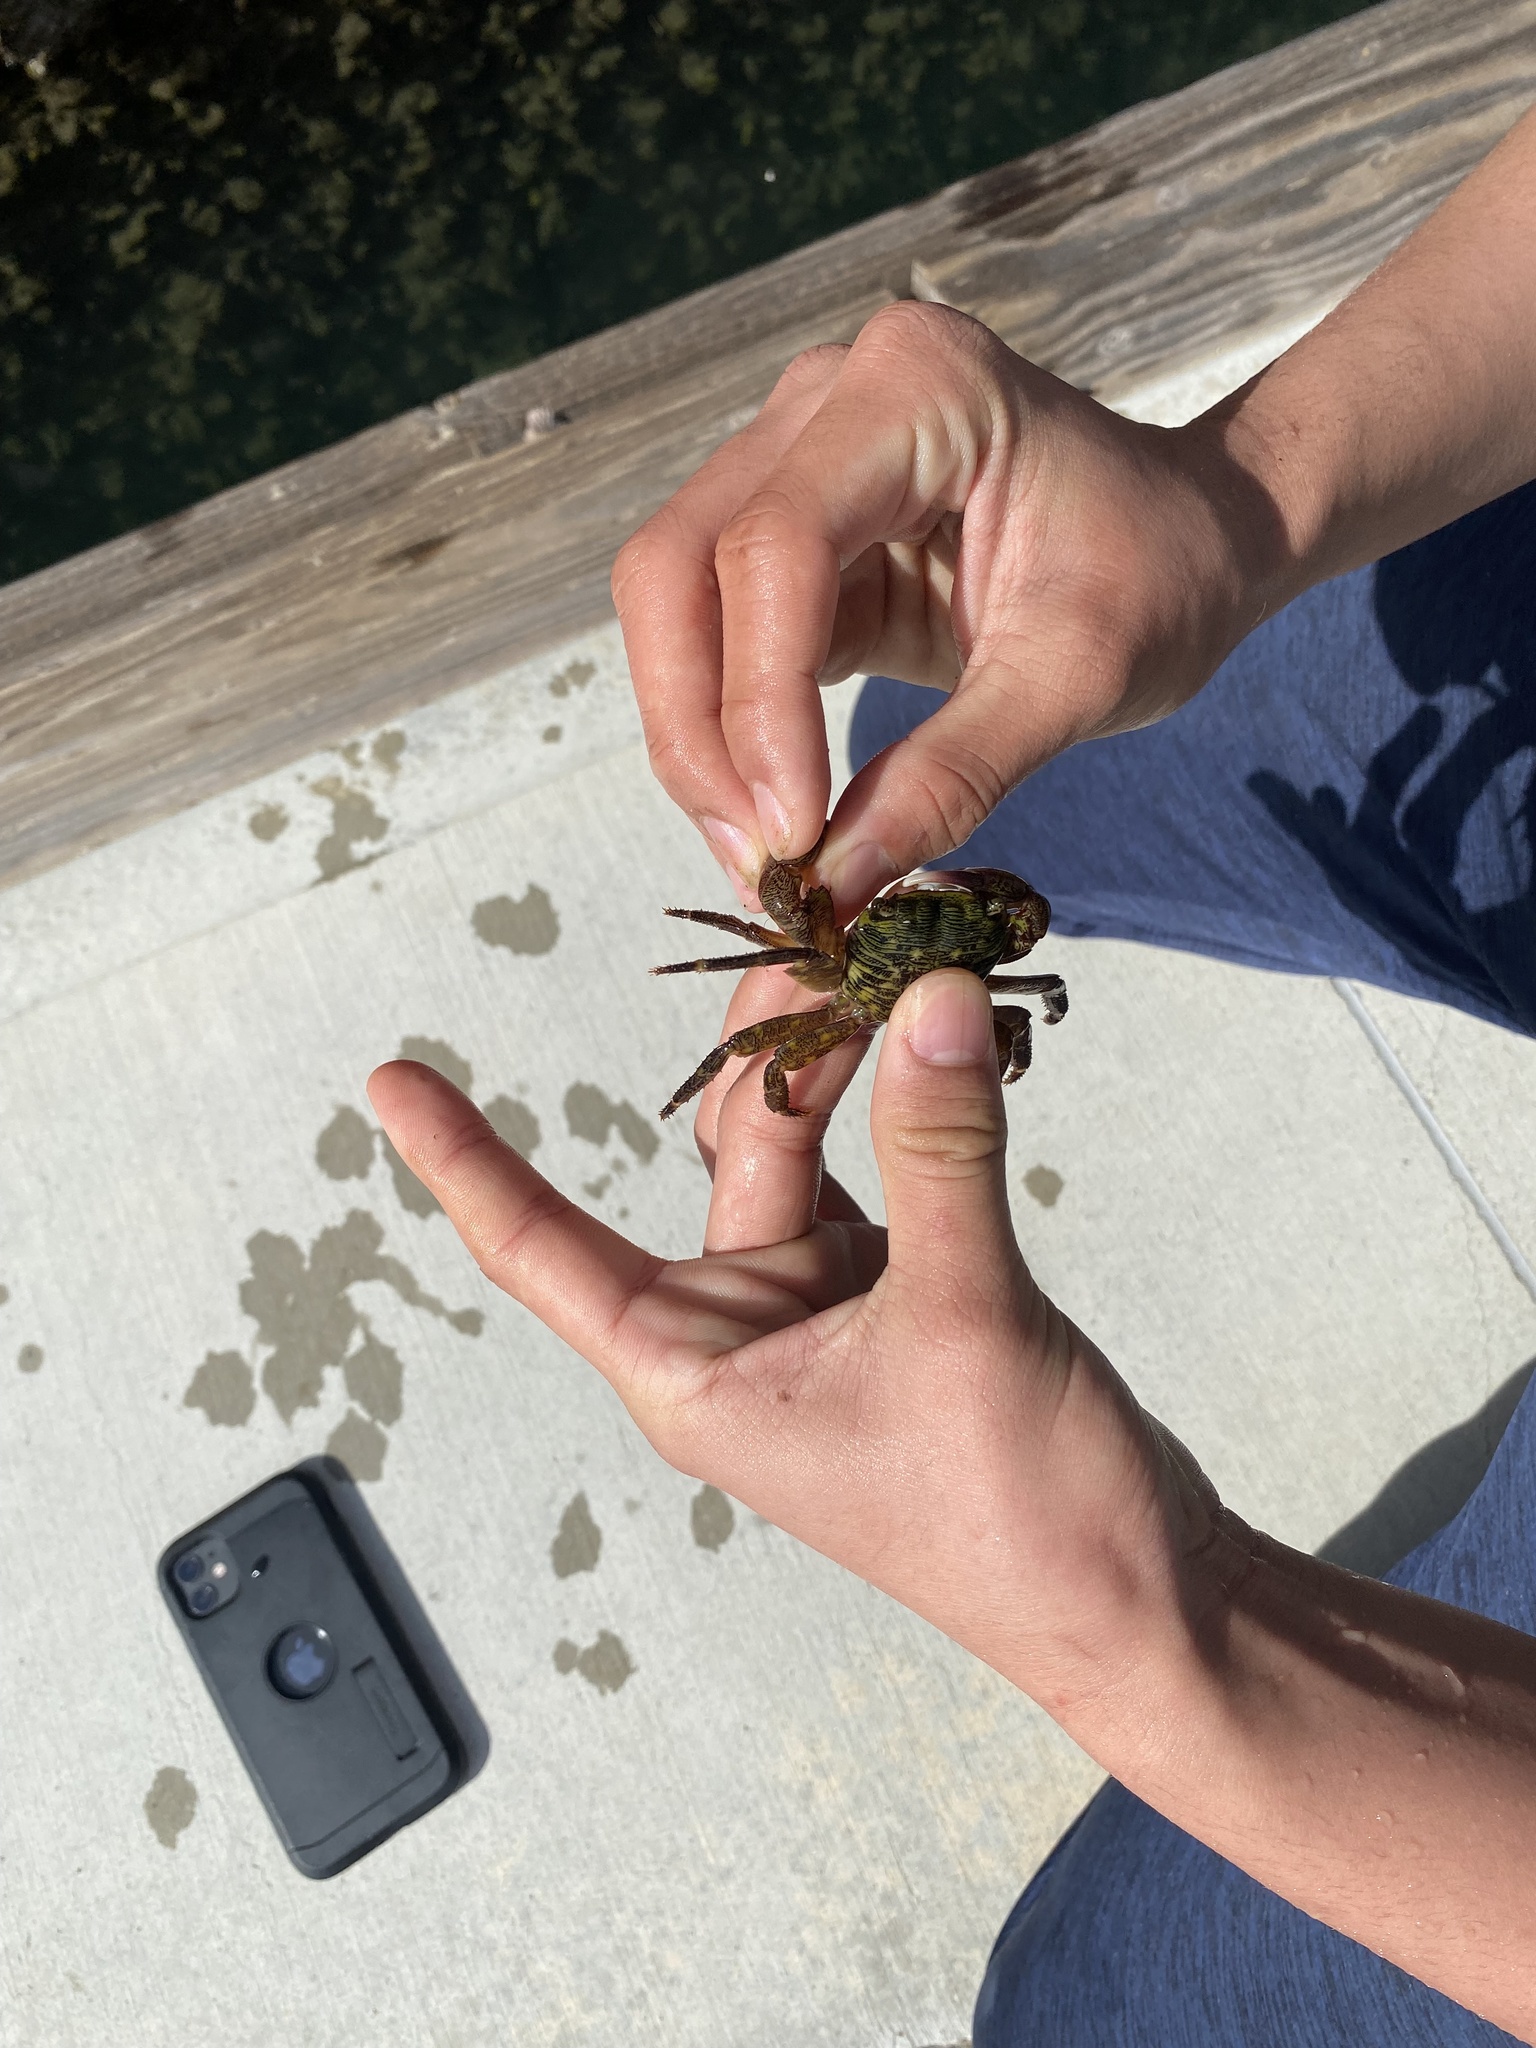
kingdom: Animalia
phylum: Arthropoda
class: Malacostraca
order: Decapoda
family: Grapsidae
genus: Pachygrapsus
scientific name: Pachygrapsus crassipes
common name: Striped shore crab
